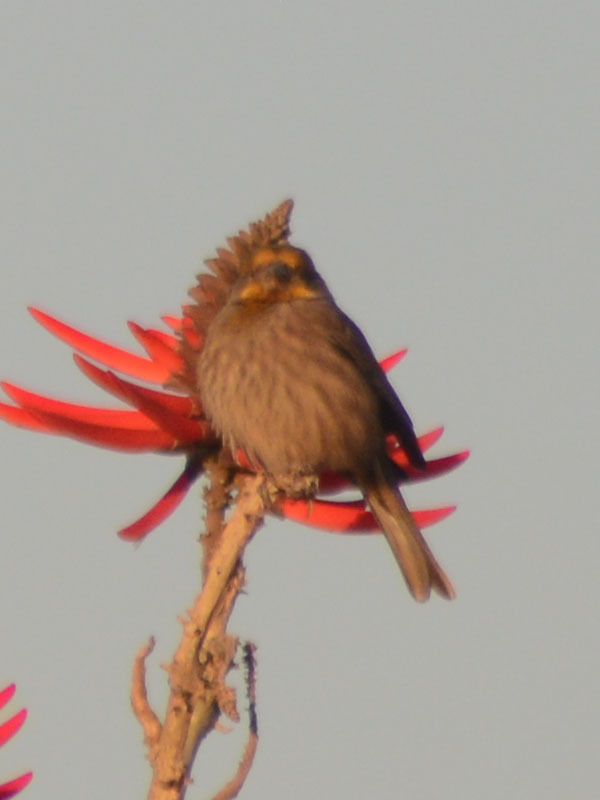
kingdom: Animalia
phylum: Chordata
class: Aves
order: Passeriformes
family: Fringillidae
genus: Haemorhous
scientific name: Haemorhous mexicanus
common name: House finch
